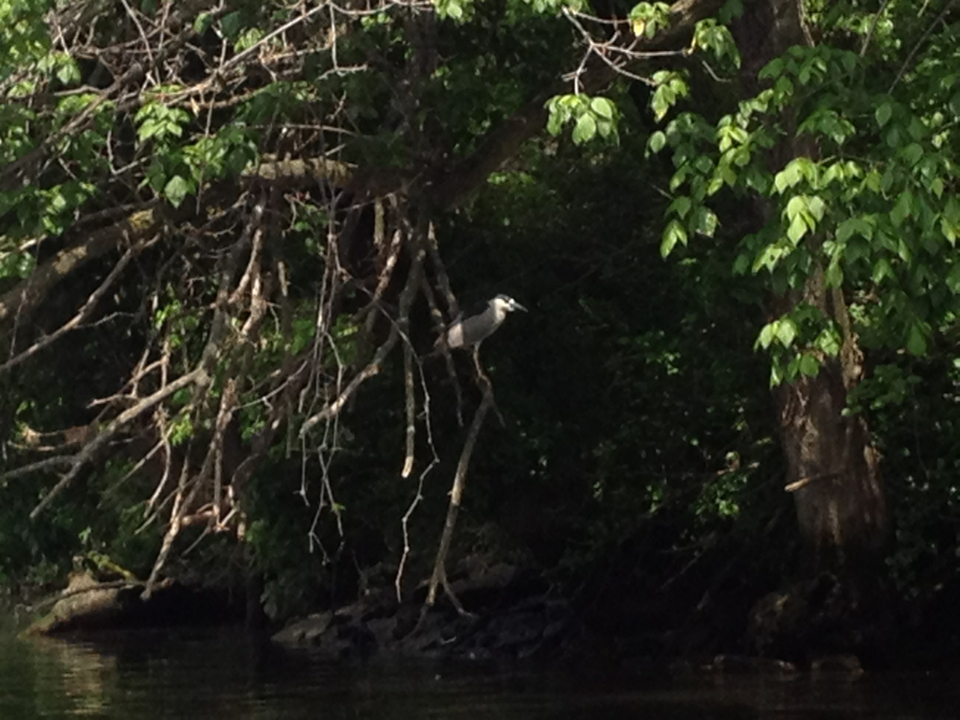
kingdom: Animalia
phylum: Chordata
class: Aves
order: Pelecaniformes
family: Ardeidae
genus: Nycticorax
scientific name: Nycticorax nycticorax
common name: Black-crowned night heron
